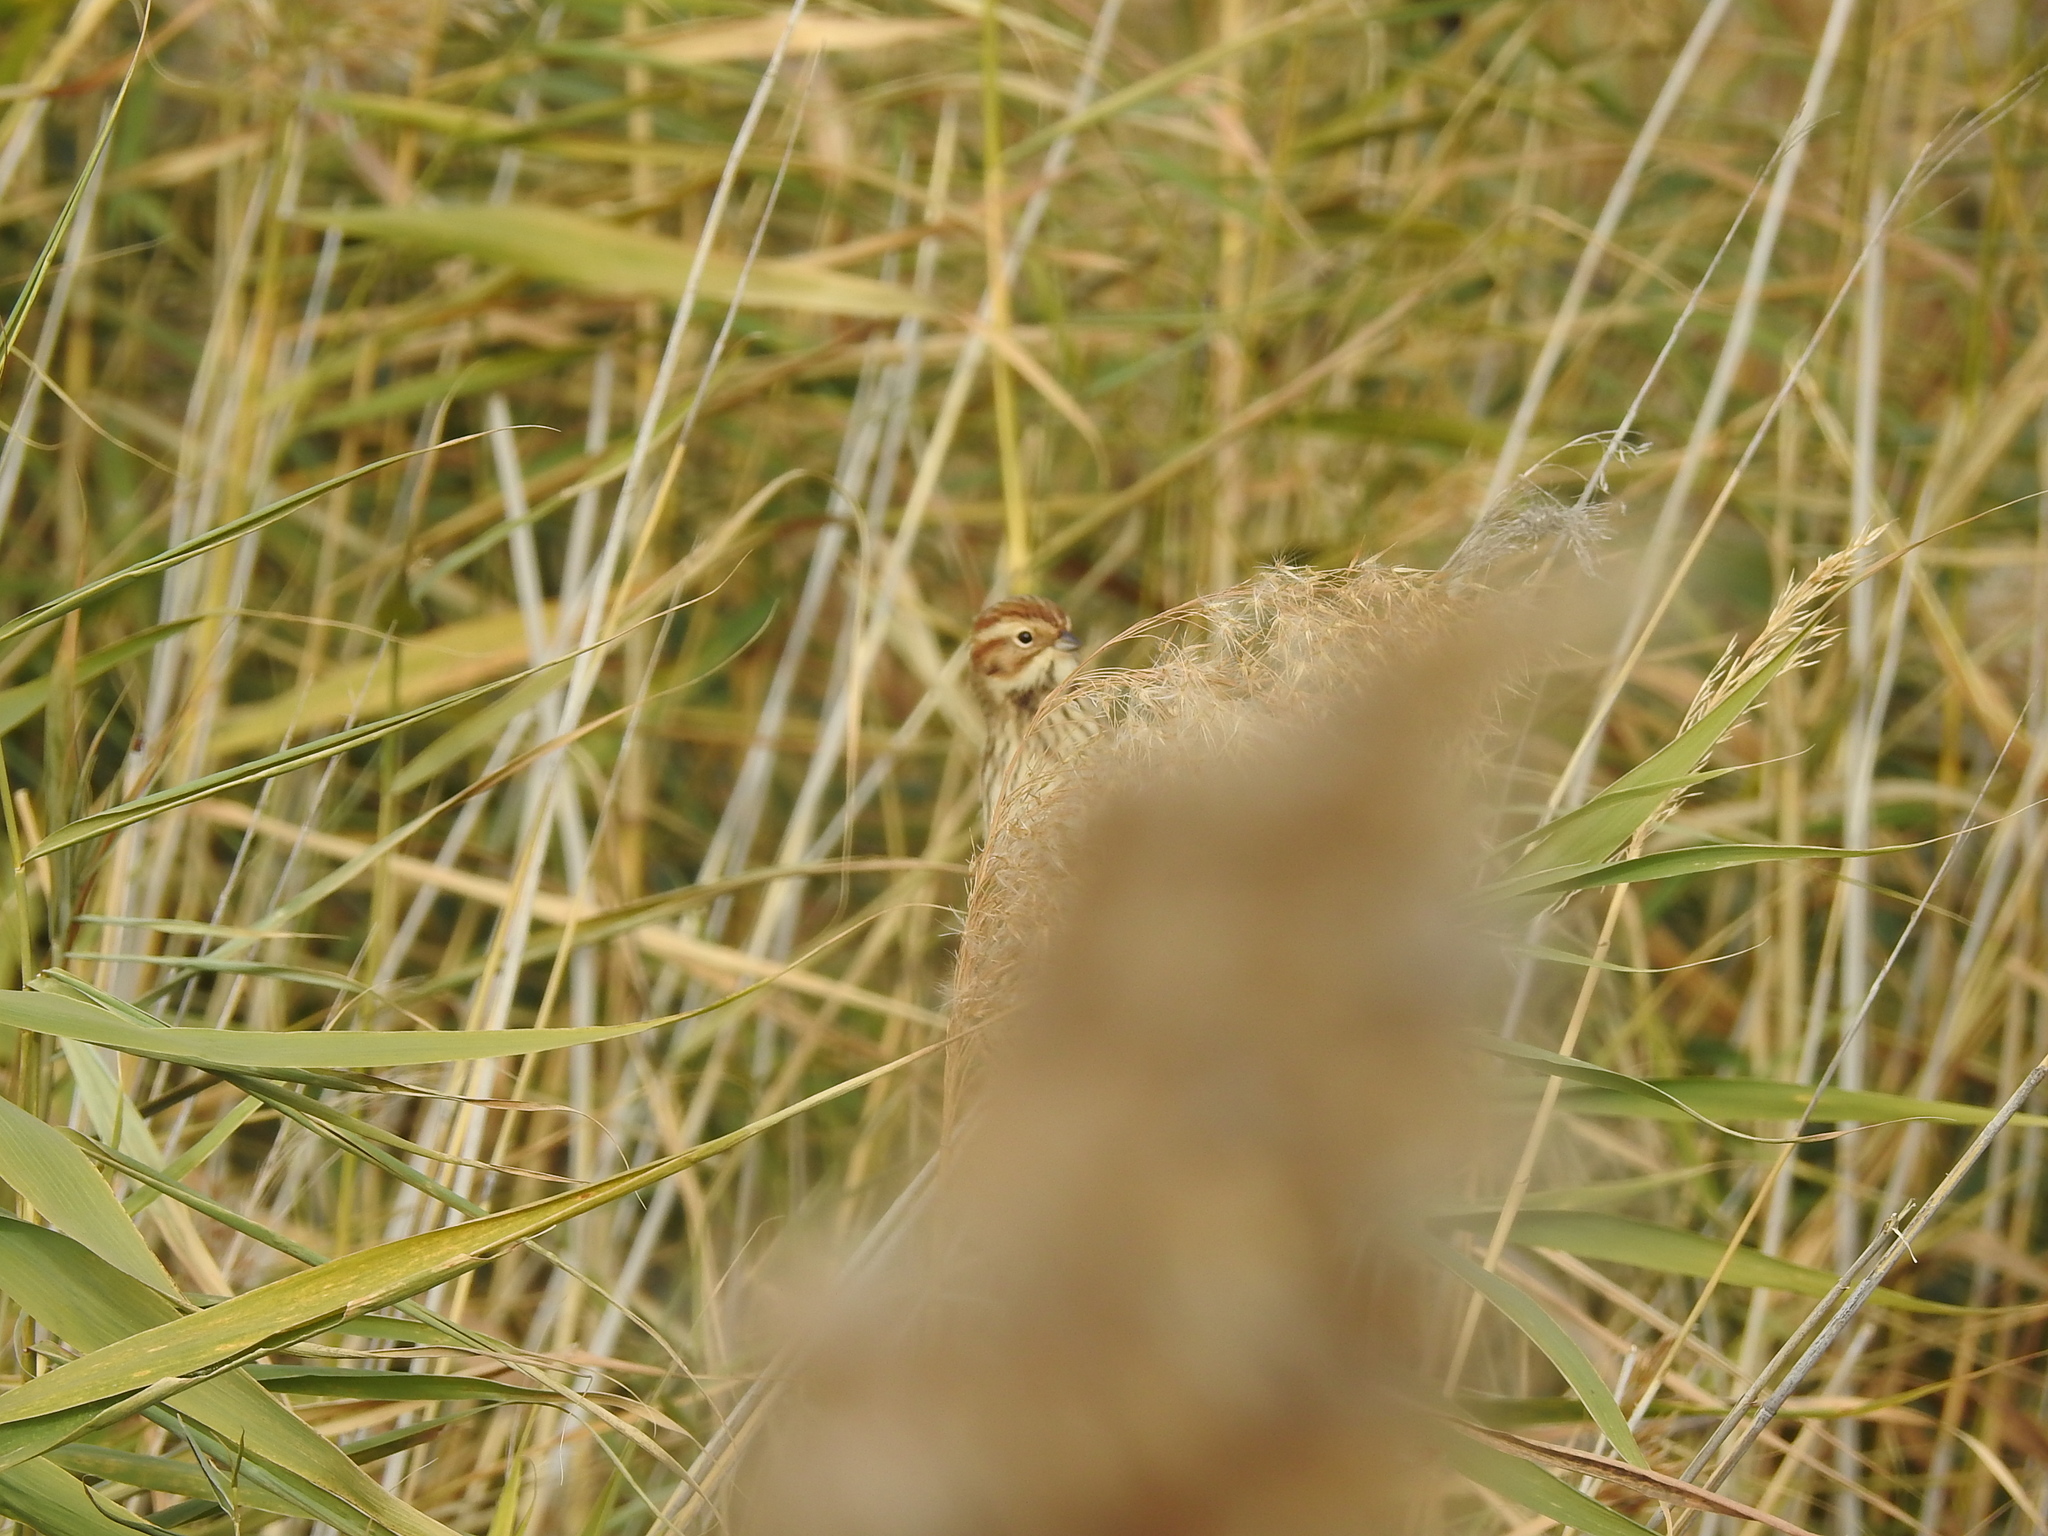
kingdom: Animalia
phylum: Chordata
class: Aves
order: Passeriformes
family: Emberizidae
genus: Emberiza
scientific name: Emberiza schoeniclus
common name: Reed bunting
